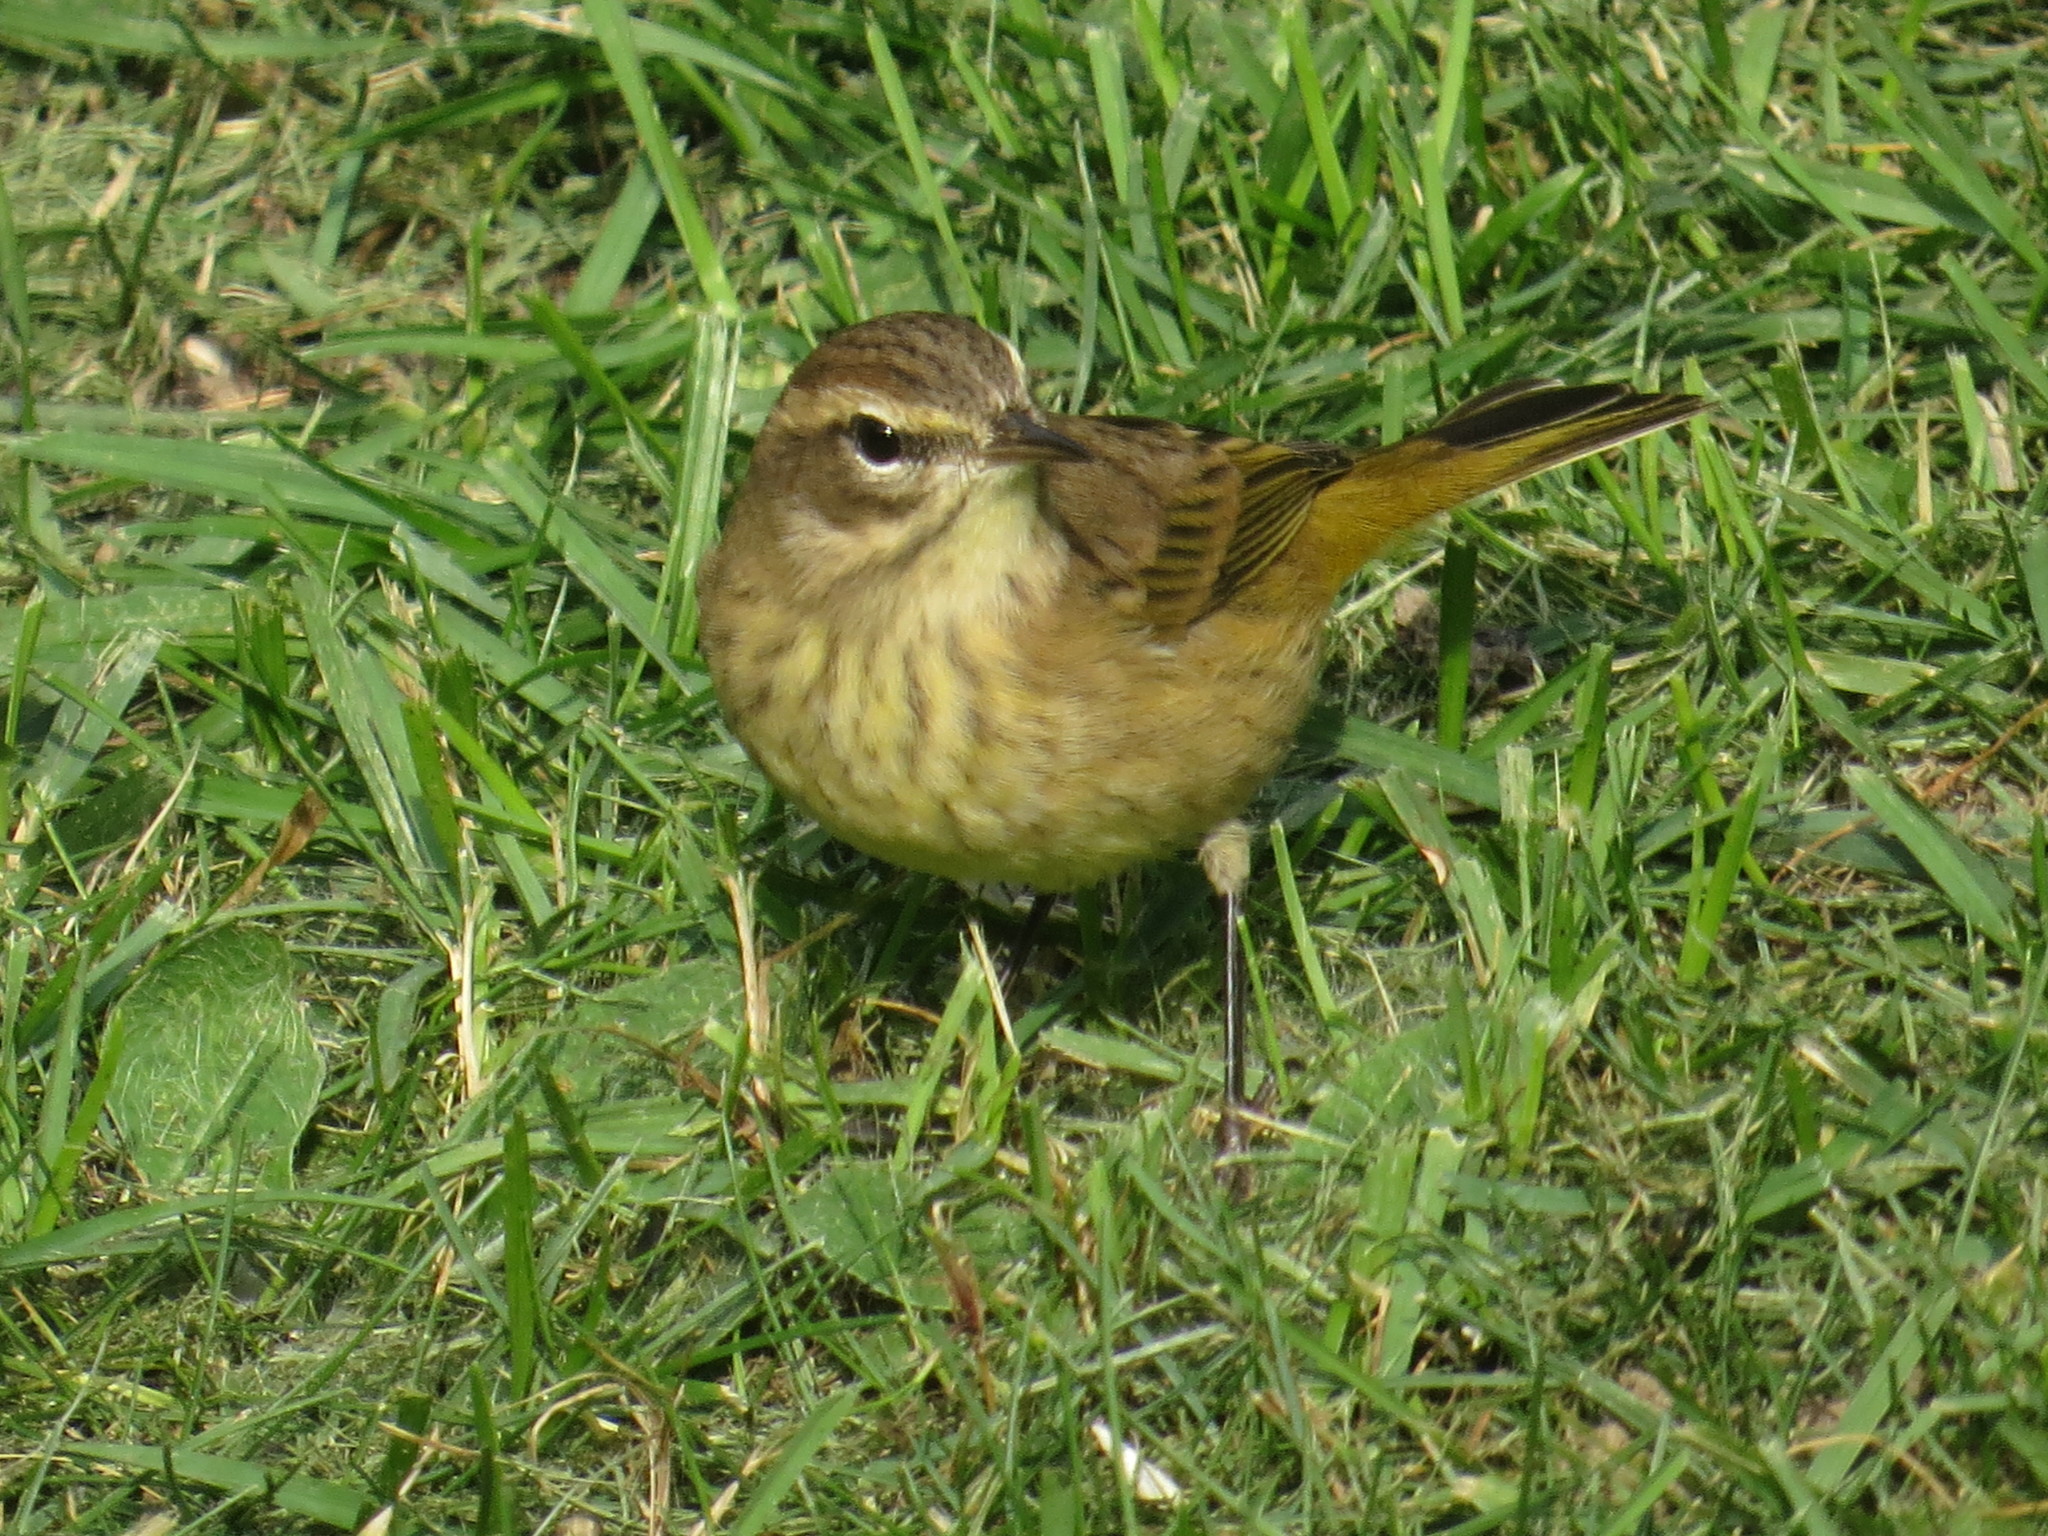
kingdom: Animalia
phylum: Chordata
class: Aves
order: Passeriformes
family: Parulidae
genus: Setophaga
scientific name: Setophaga palmarum
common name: Palm warbler
